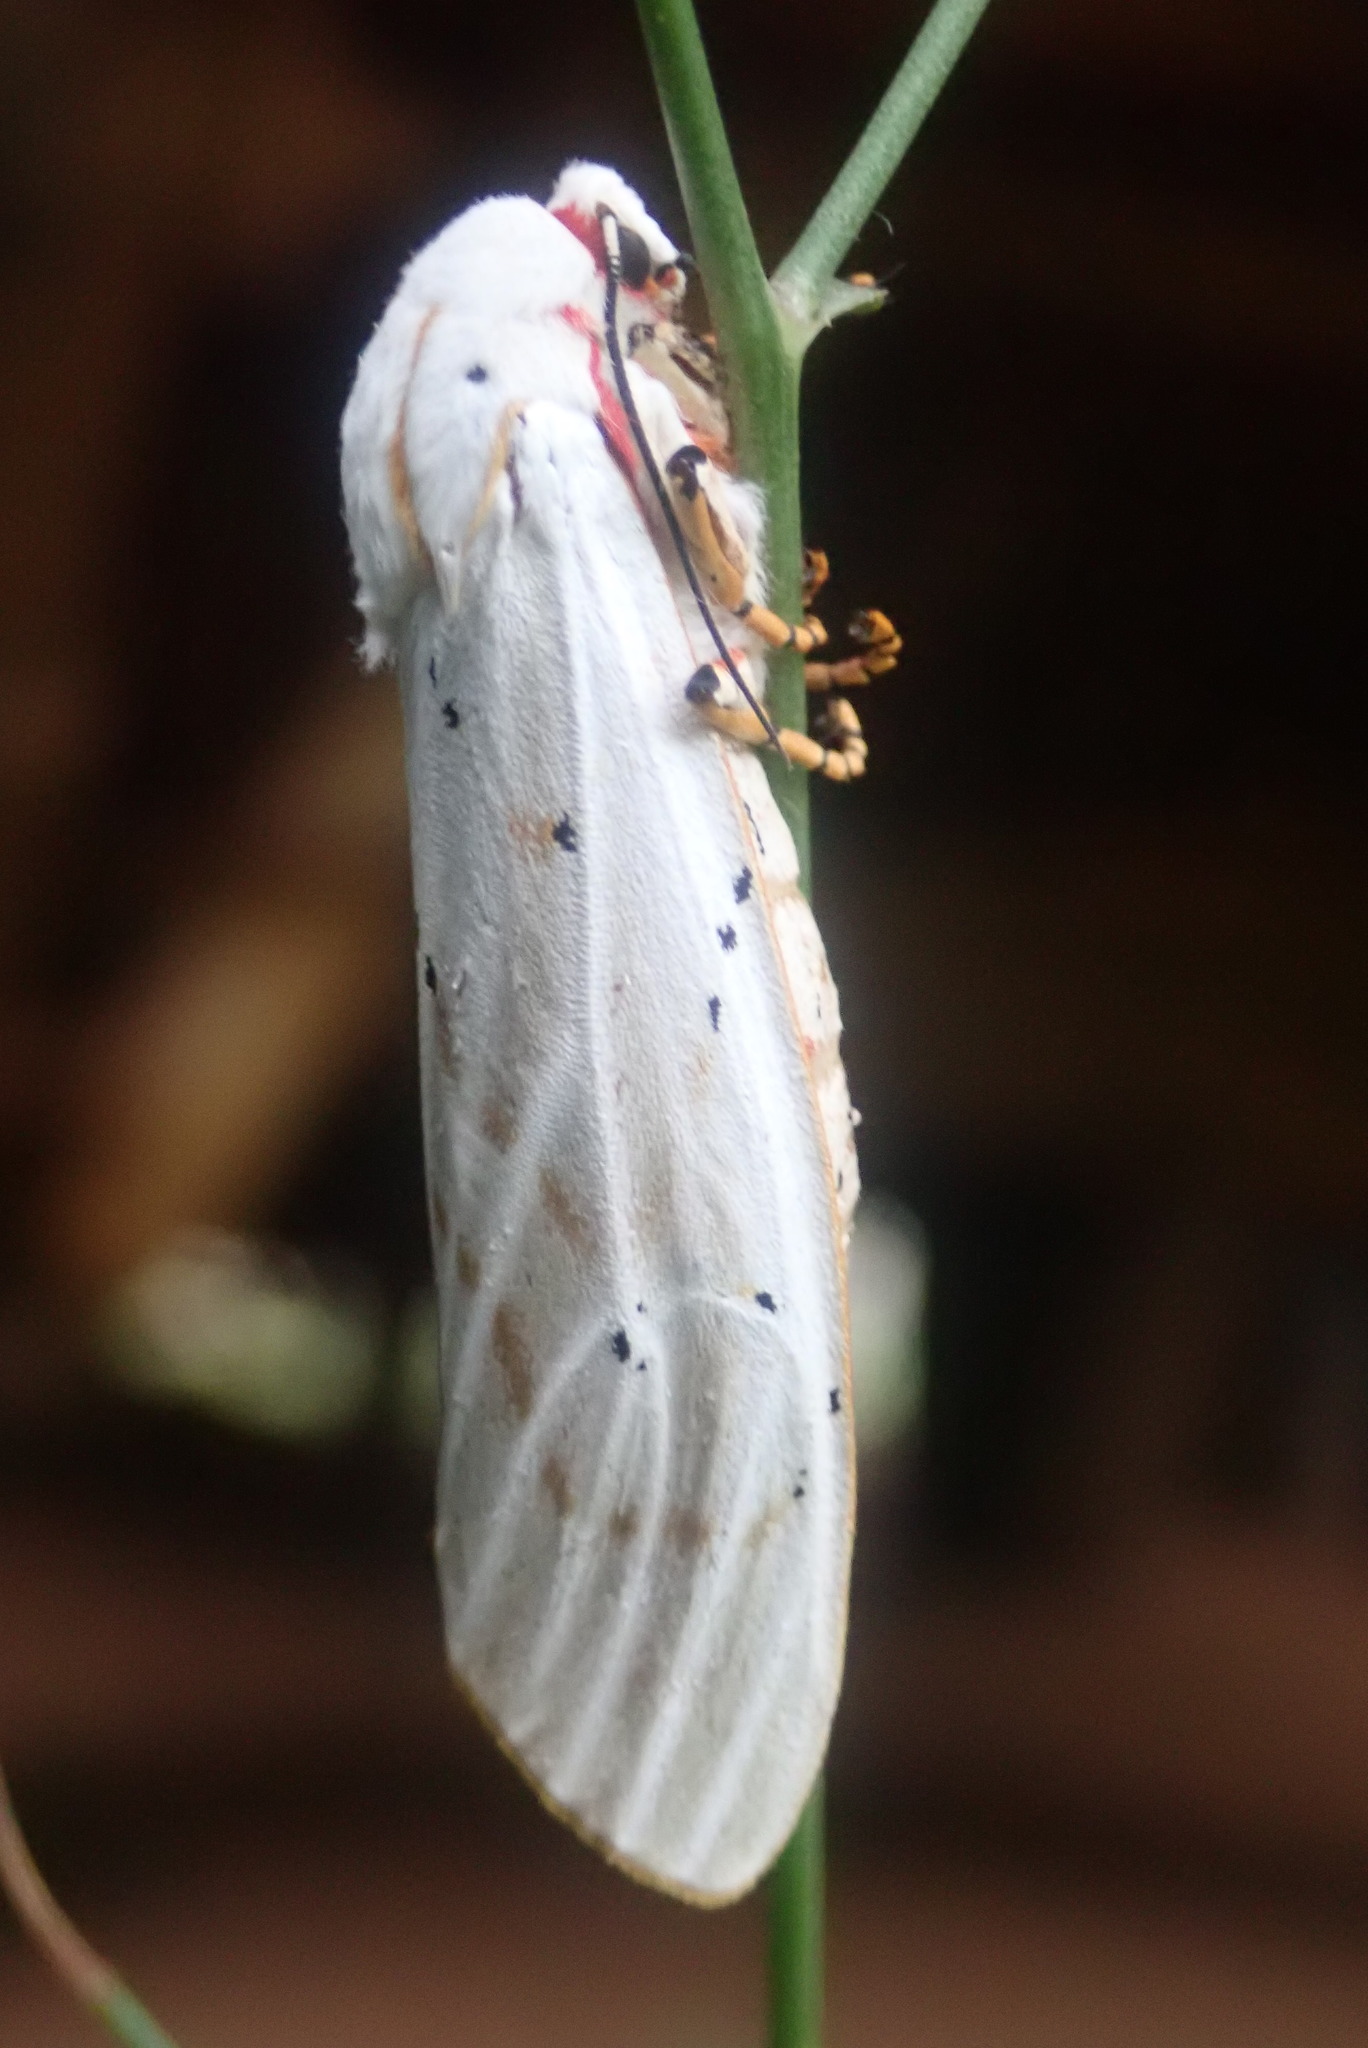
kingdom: Animalia
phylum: Arthropoda
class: Insecta
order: Lepidoptera
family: Erebidae
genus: Rhodogastria
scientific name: Rhodogastria similis
